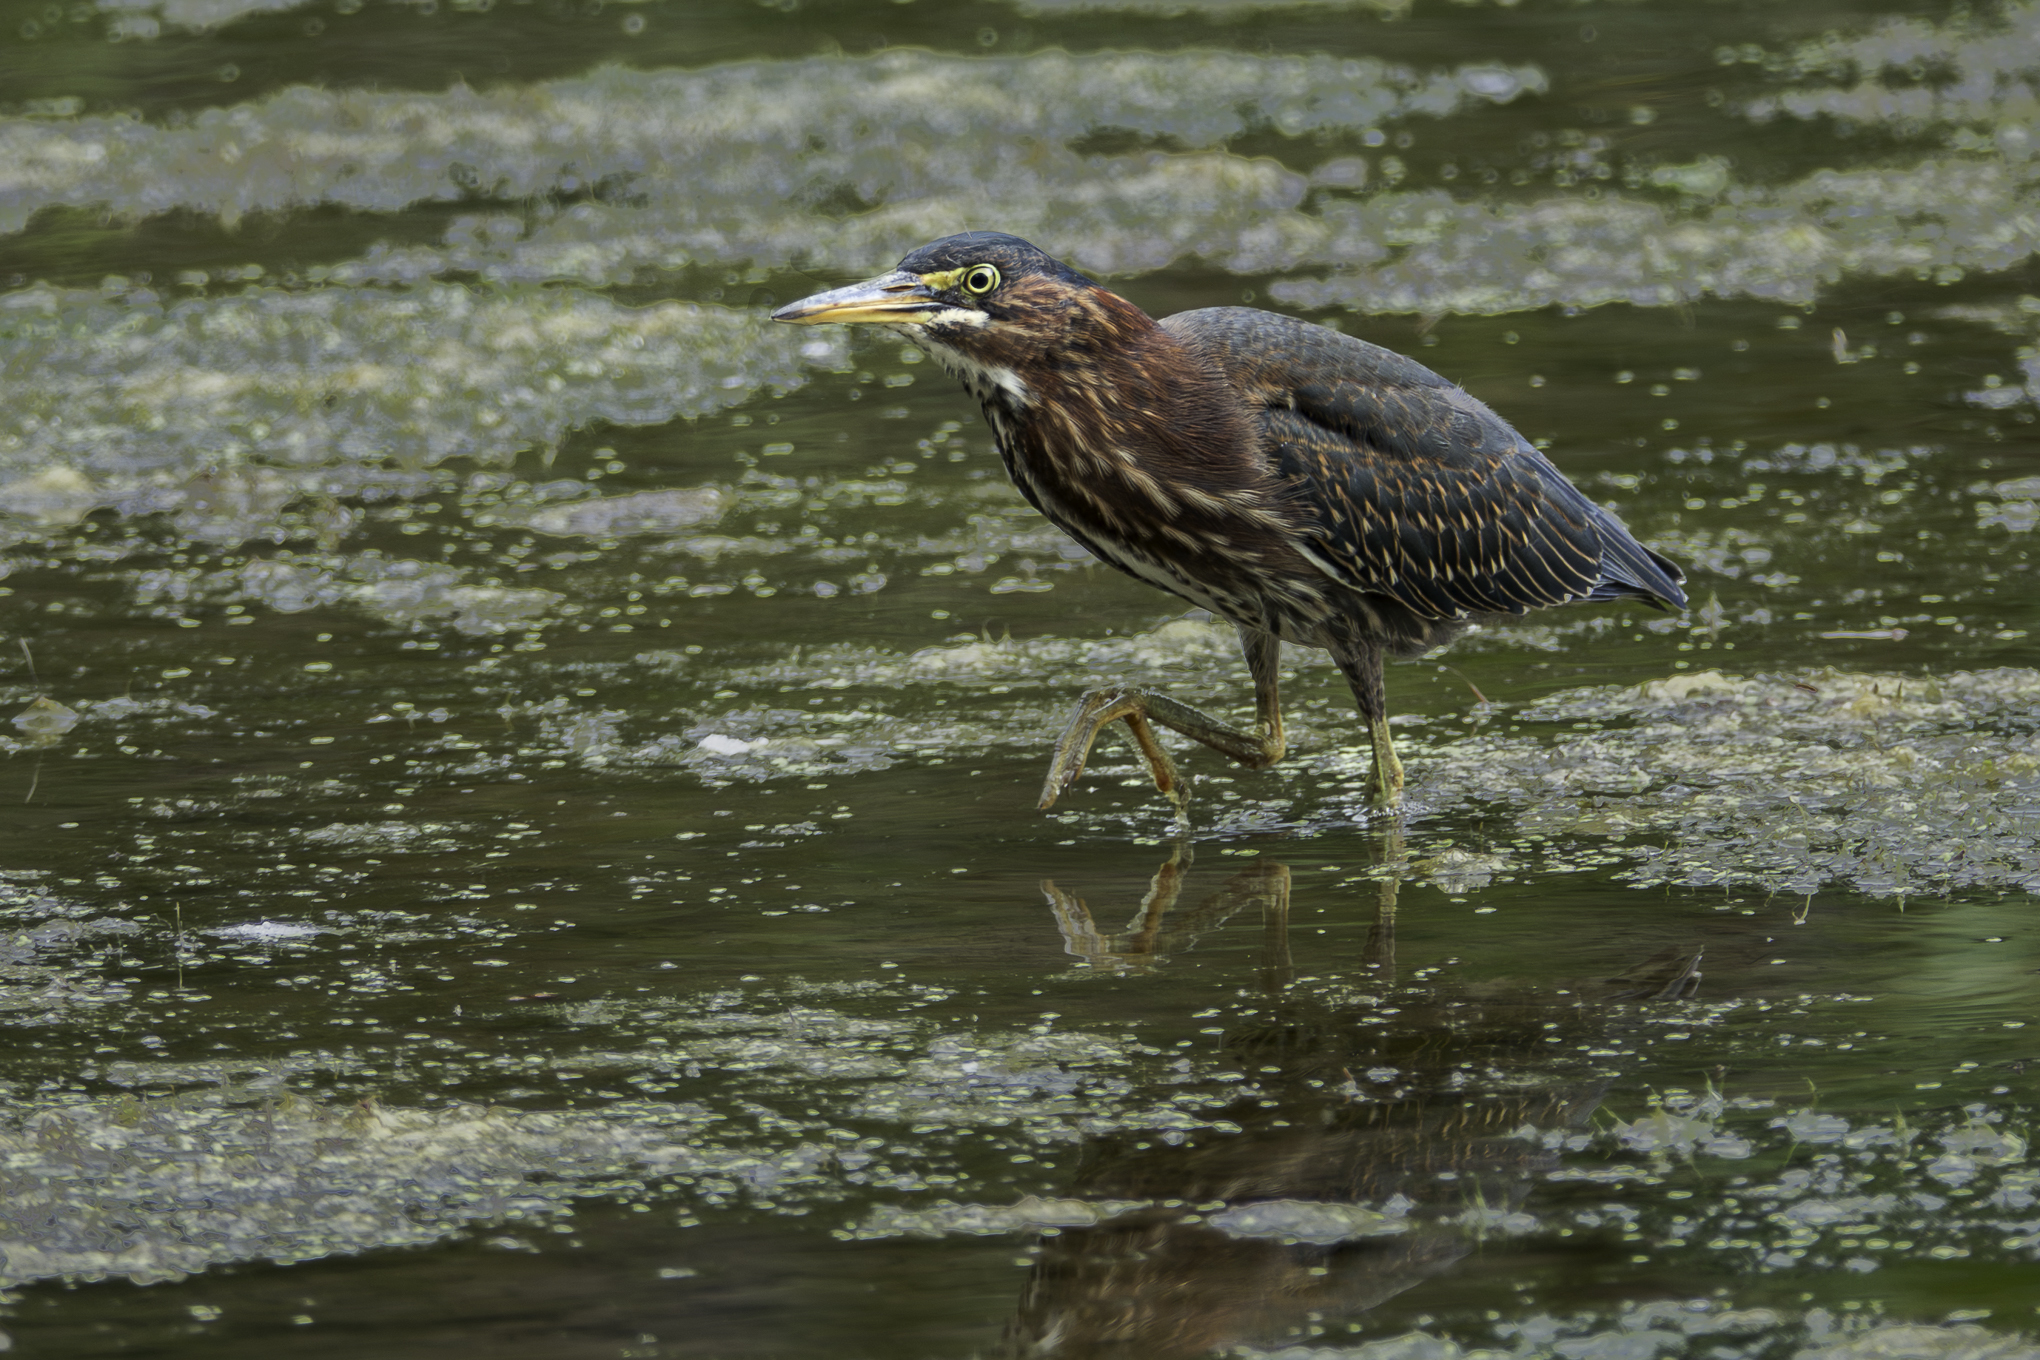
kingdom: Animalia
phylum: Chordata
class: Aves
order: Pelecaniformes
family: Ardeidae
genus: Butorides
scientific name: Butorides virescens
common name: Green heron
